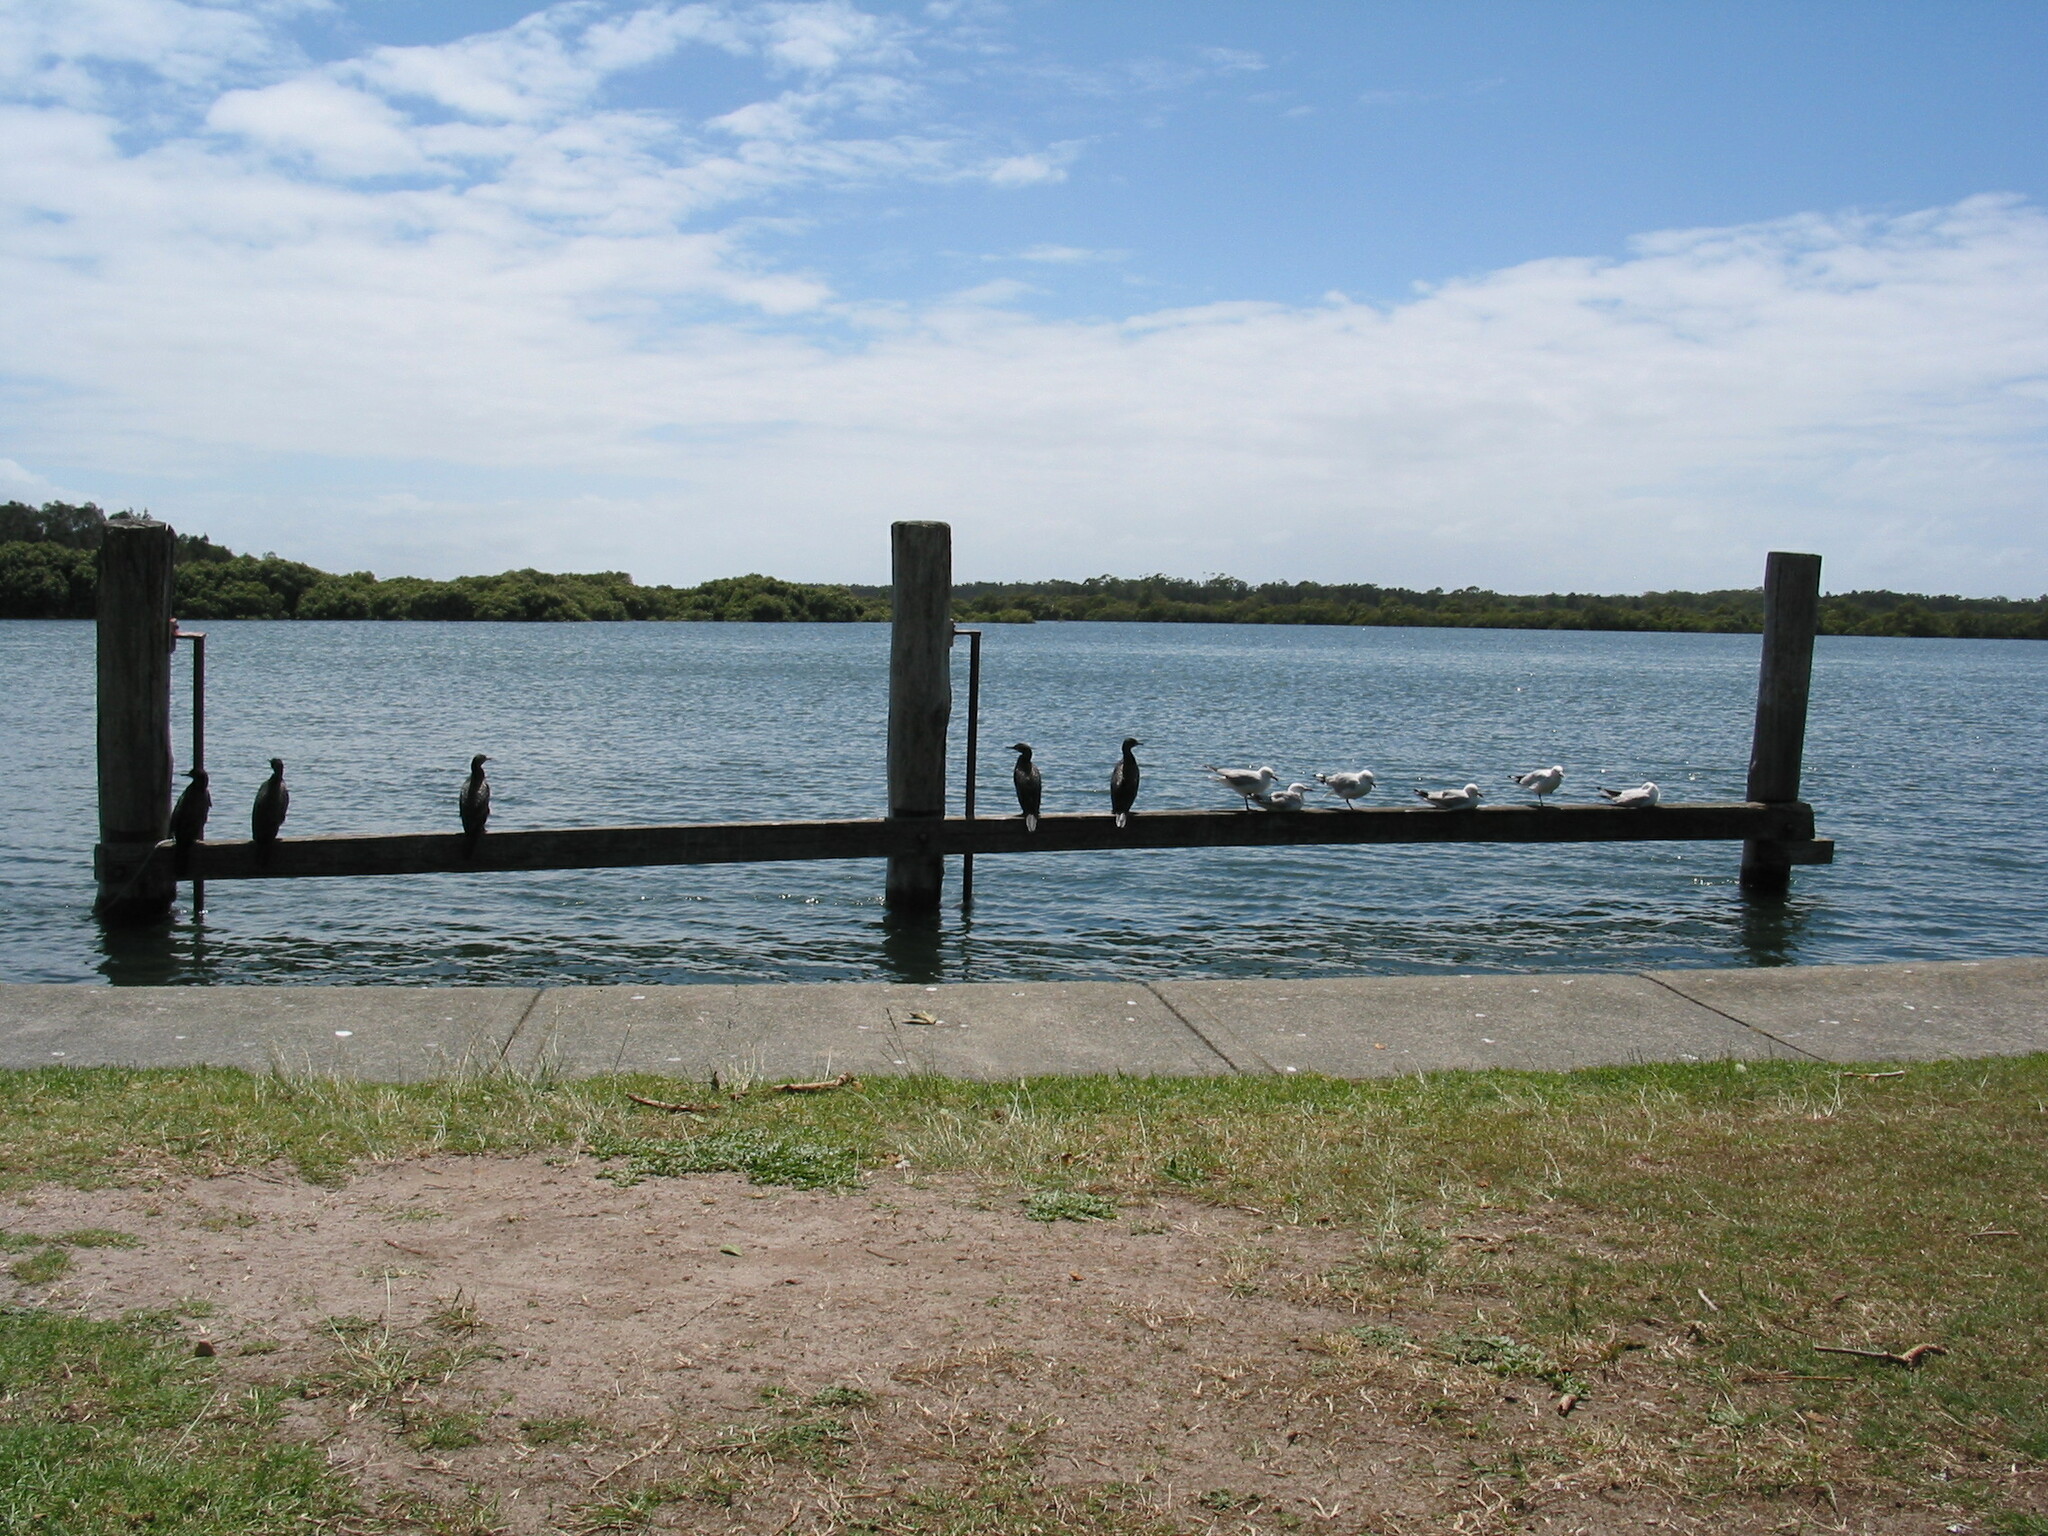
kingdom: Animalia
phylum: Chordata
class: Aves
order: Suliformes
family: Phalacrocoracidae
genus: Phalacrocorax
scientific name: Phalacrocorax sulcirostris
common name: Little black cormorant
